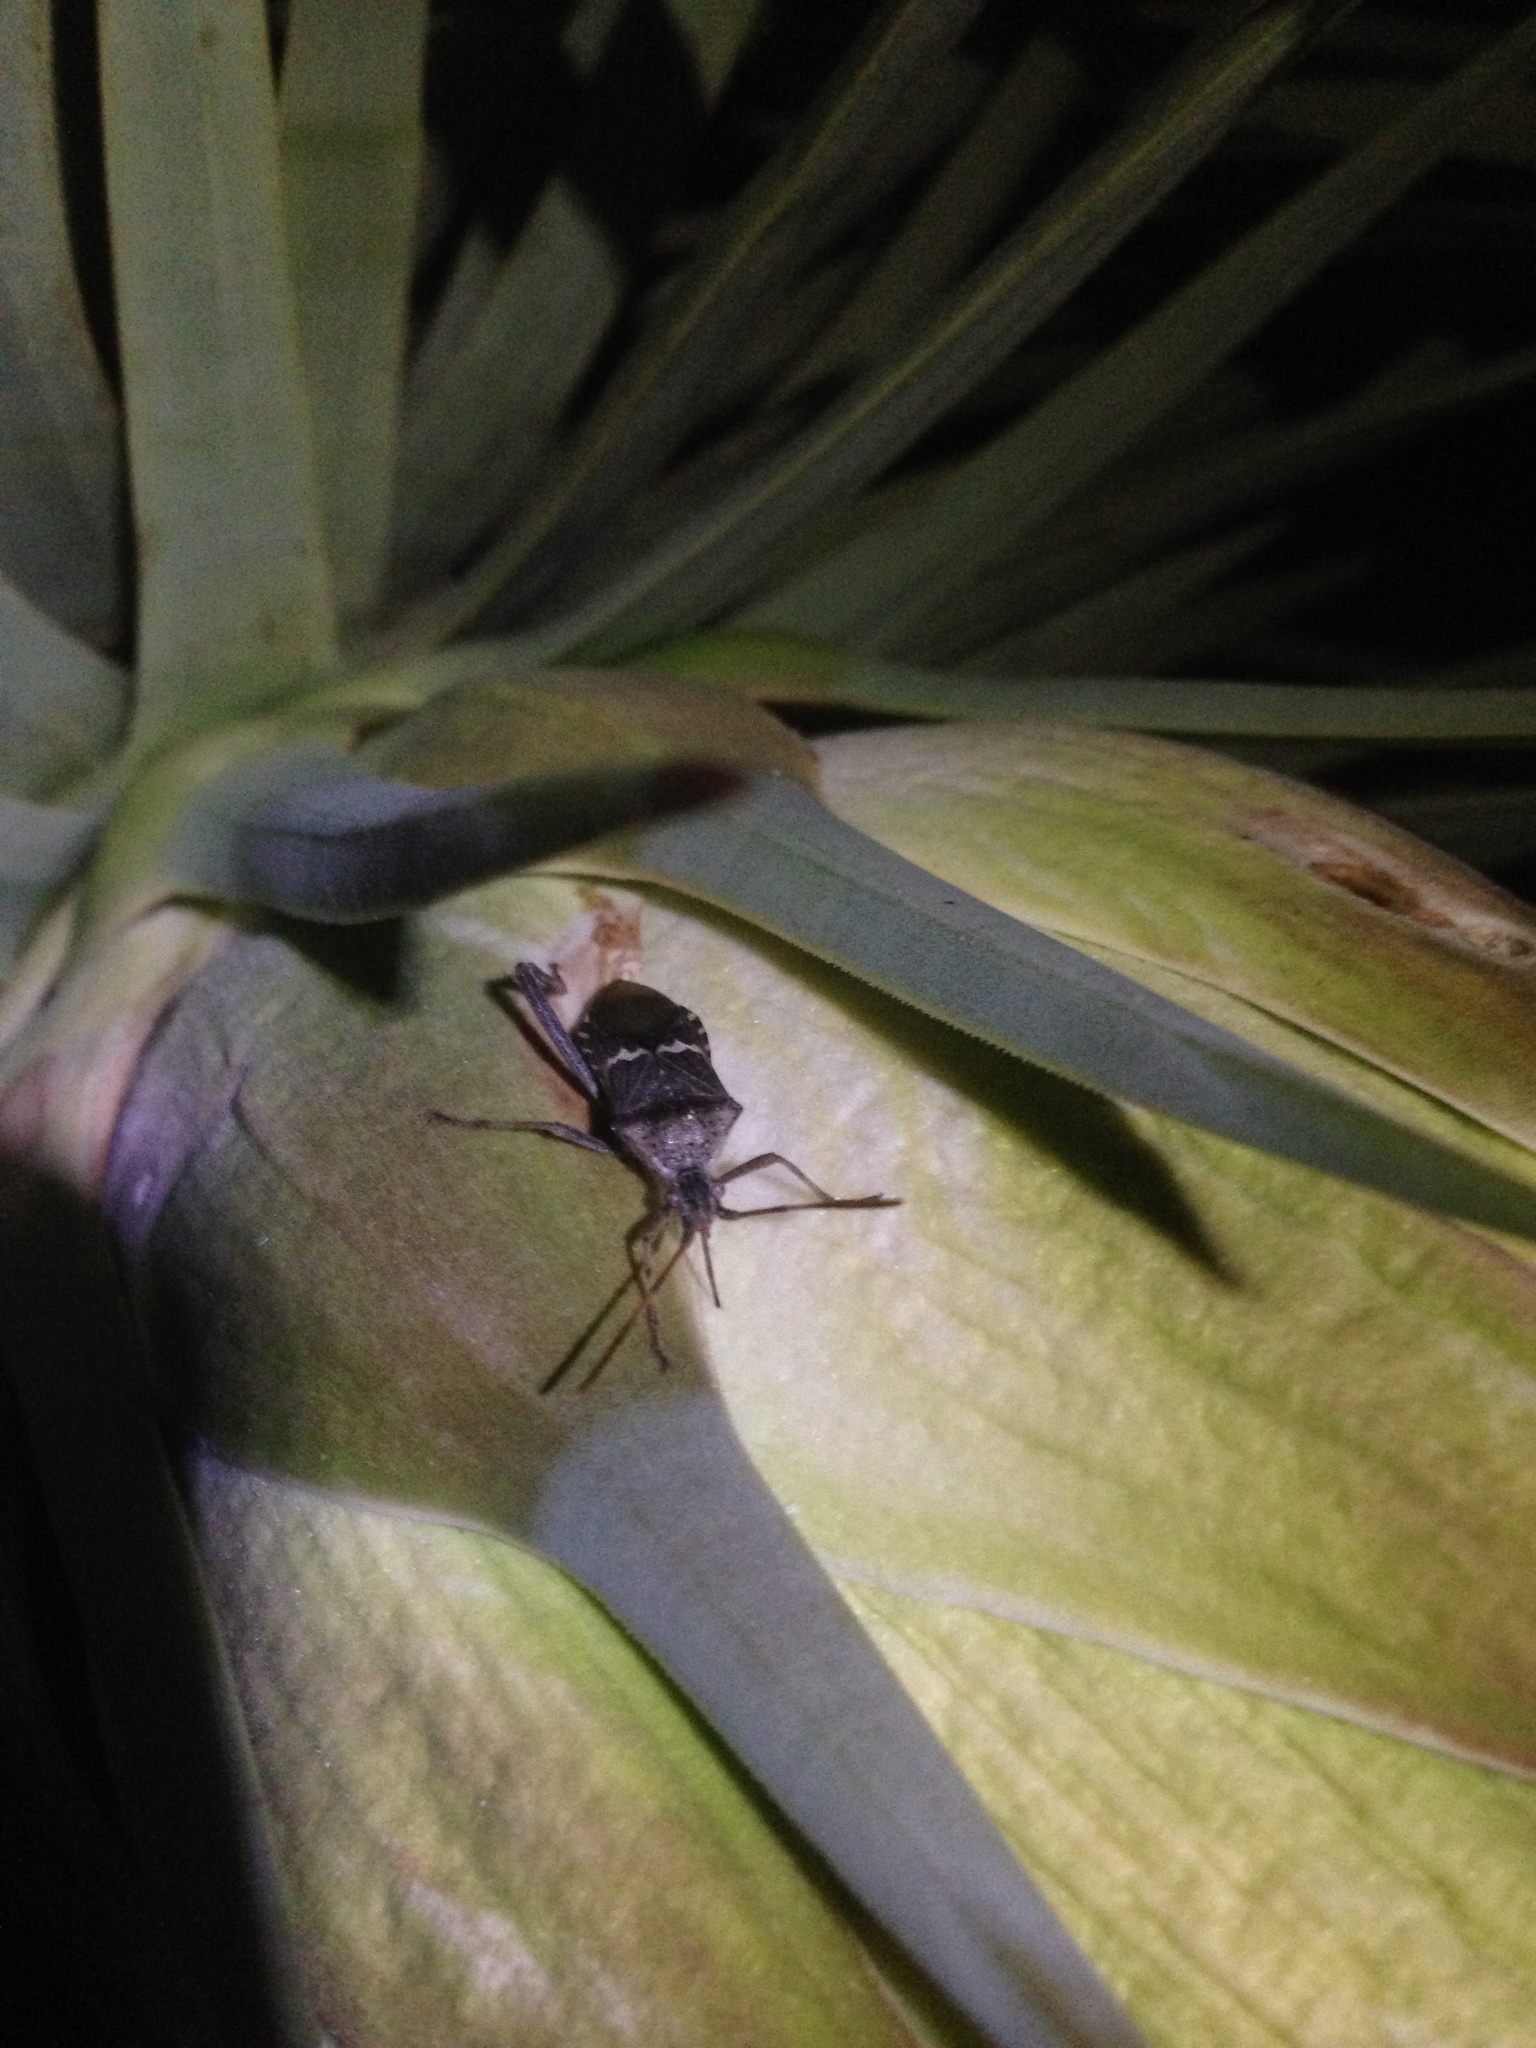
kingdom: Animalia
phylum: Arthropoda
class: Insecta
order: Hemiptera
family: Coreidae
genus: Leptoglossus
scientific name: Leptoglossus clypealis
